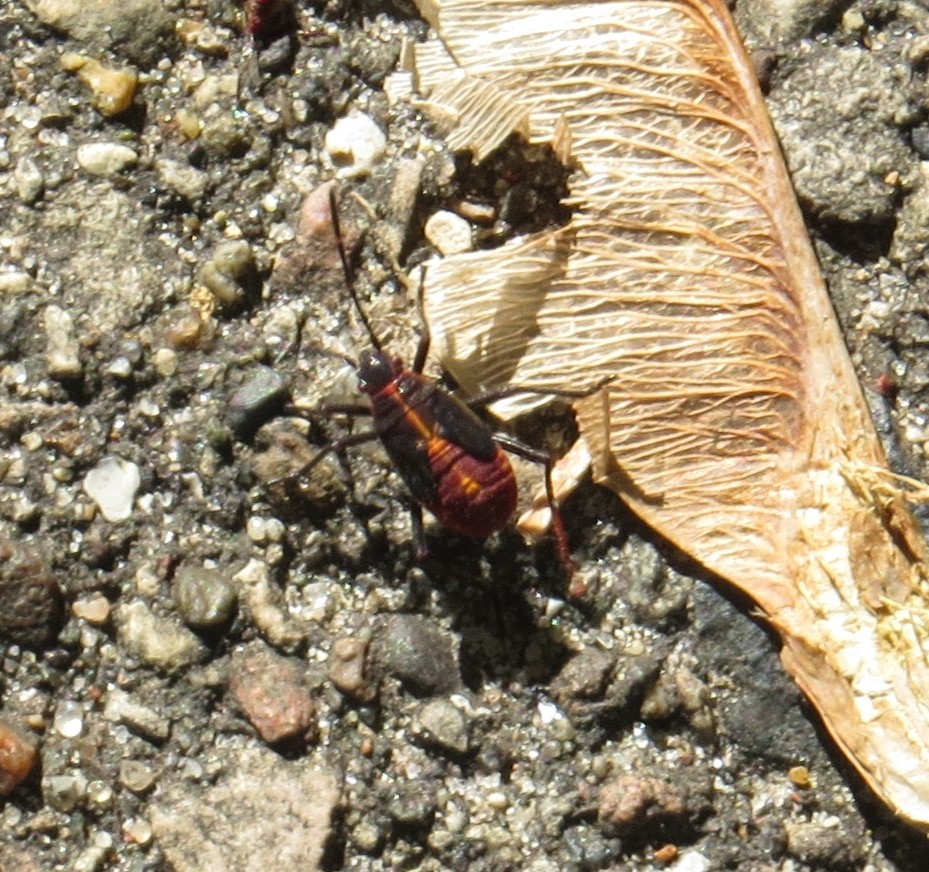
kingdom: Animalia
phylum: Arthropoda
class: Insecta
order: Hemiptera
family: Rhopalidae
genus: Boisea
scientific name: Boisea trivittata
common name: Boxelder bug
